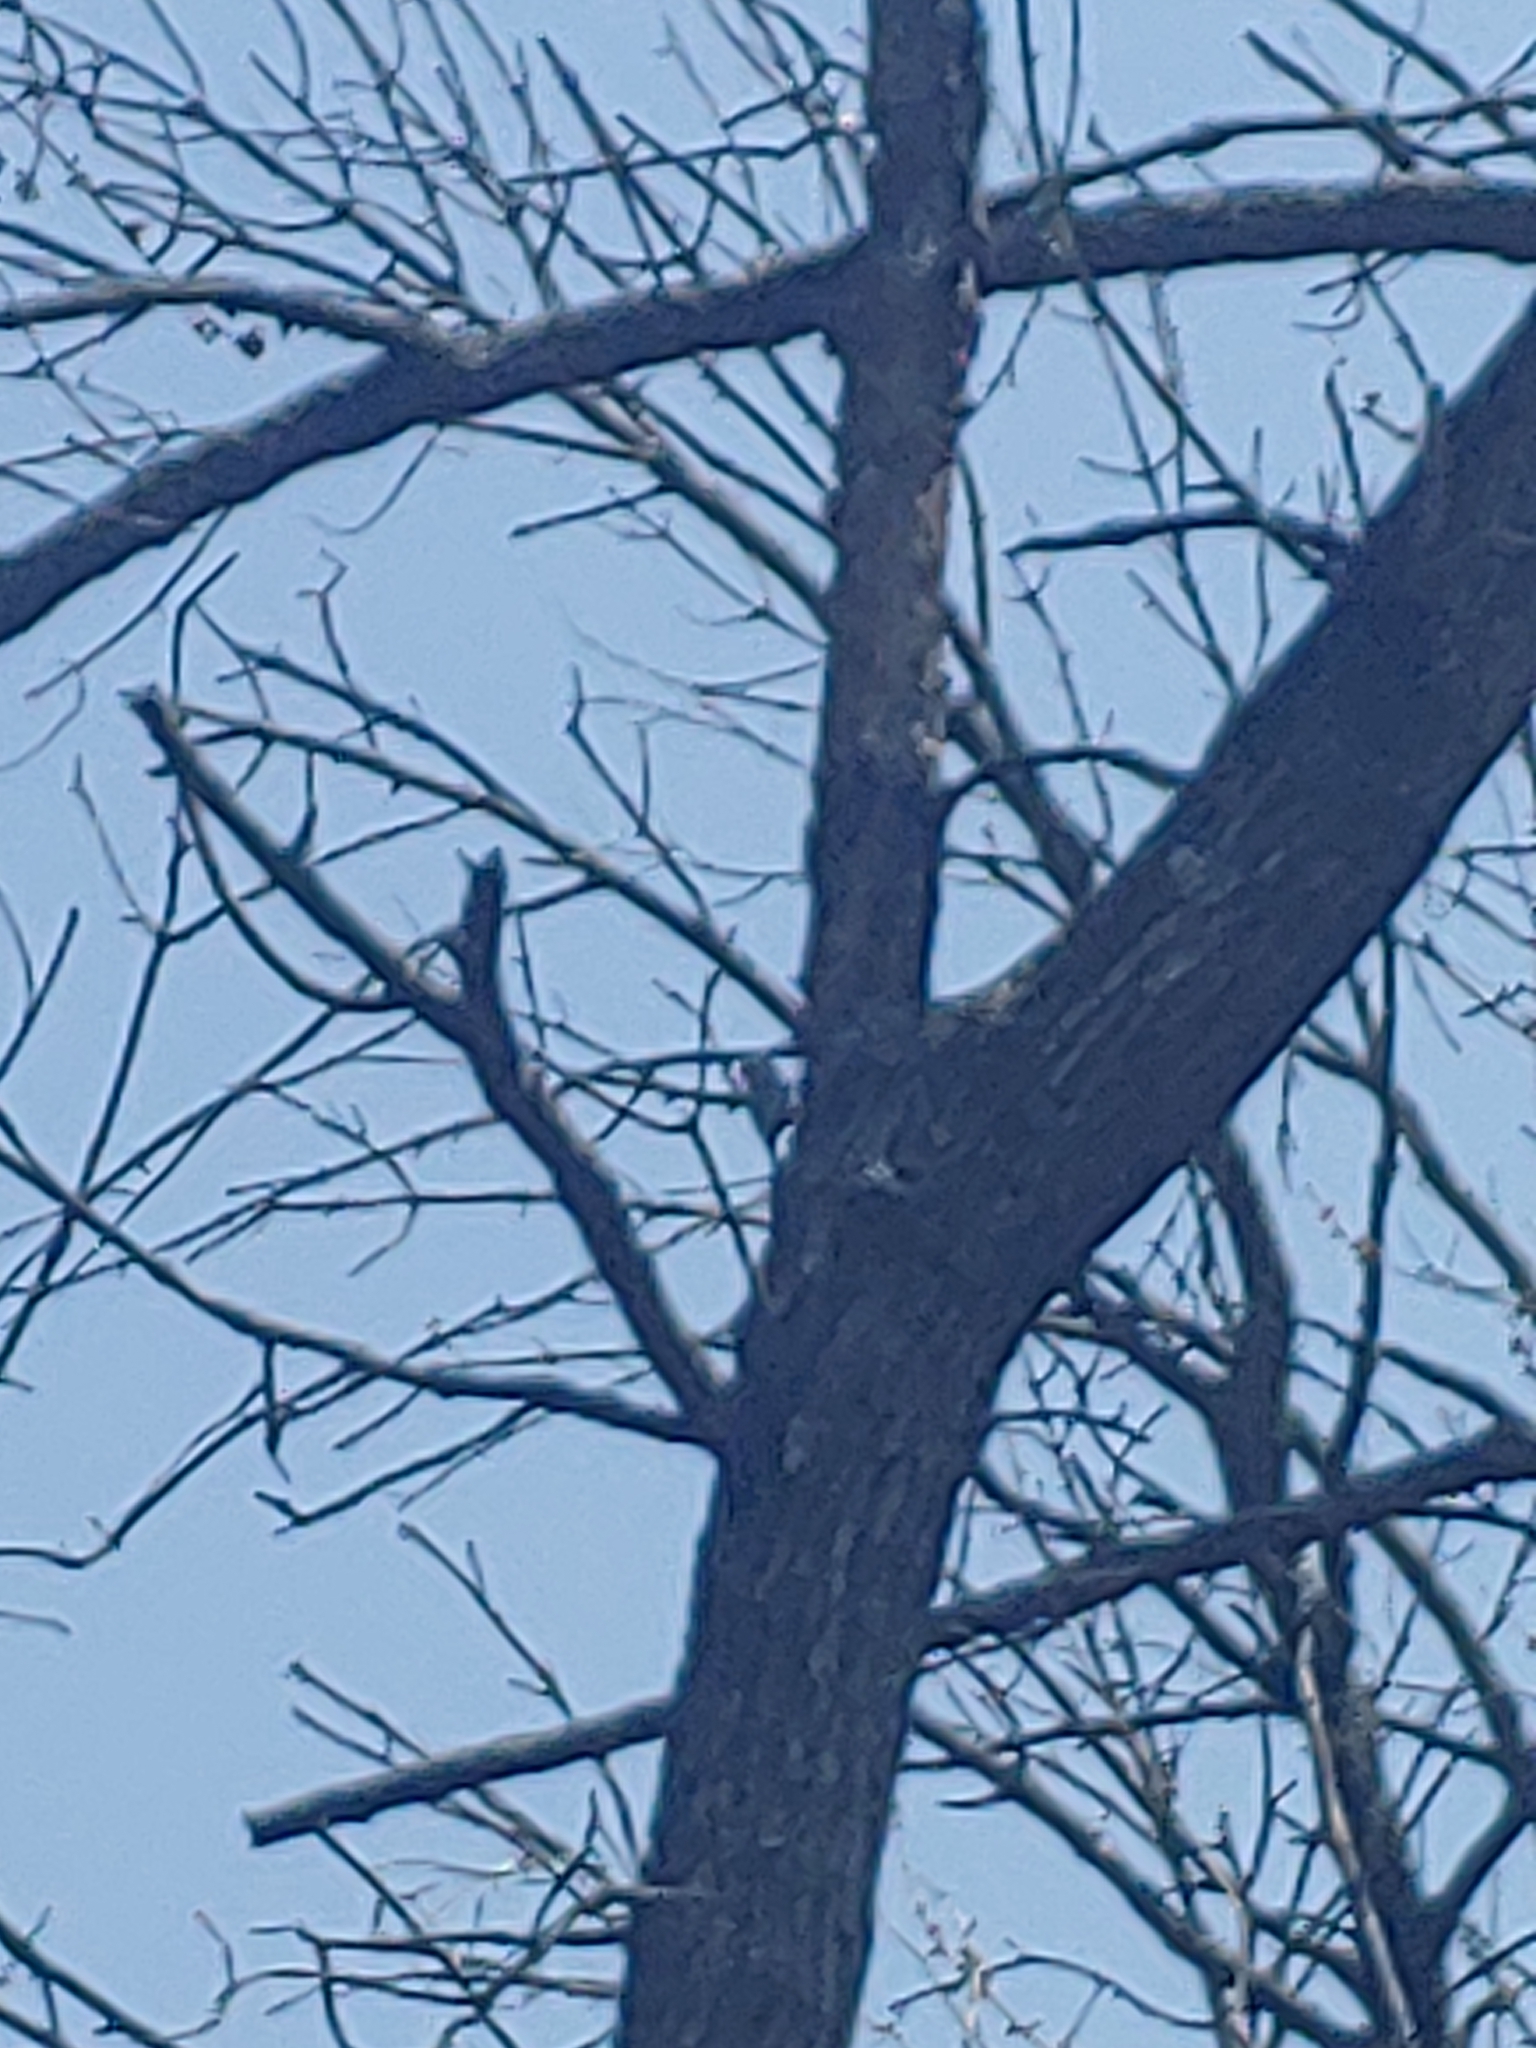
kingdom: Animalia
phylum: Chordata
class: Aves
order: Piciformes
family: Picidae
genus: Melanerpes
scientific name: Melanerpes carolinus
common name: Red-bellied woodpecker
